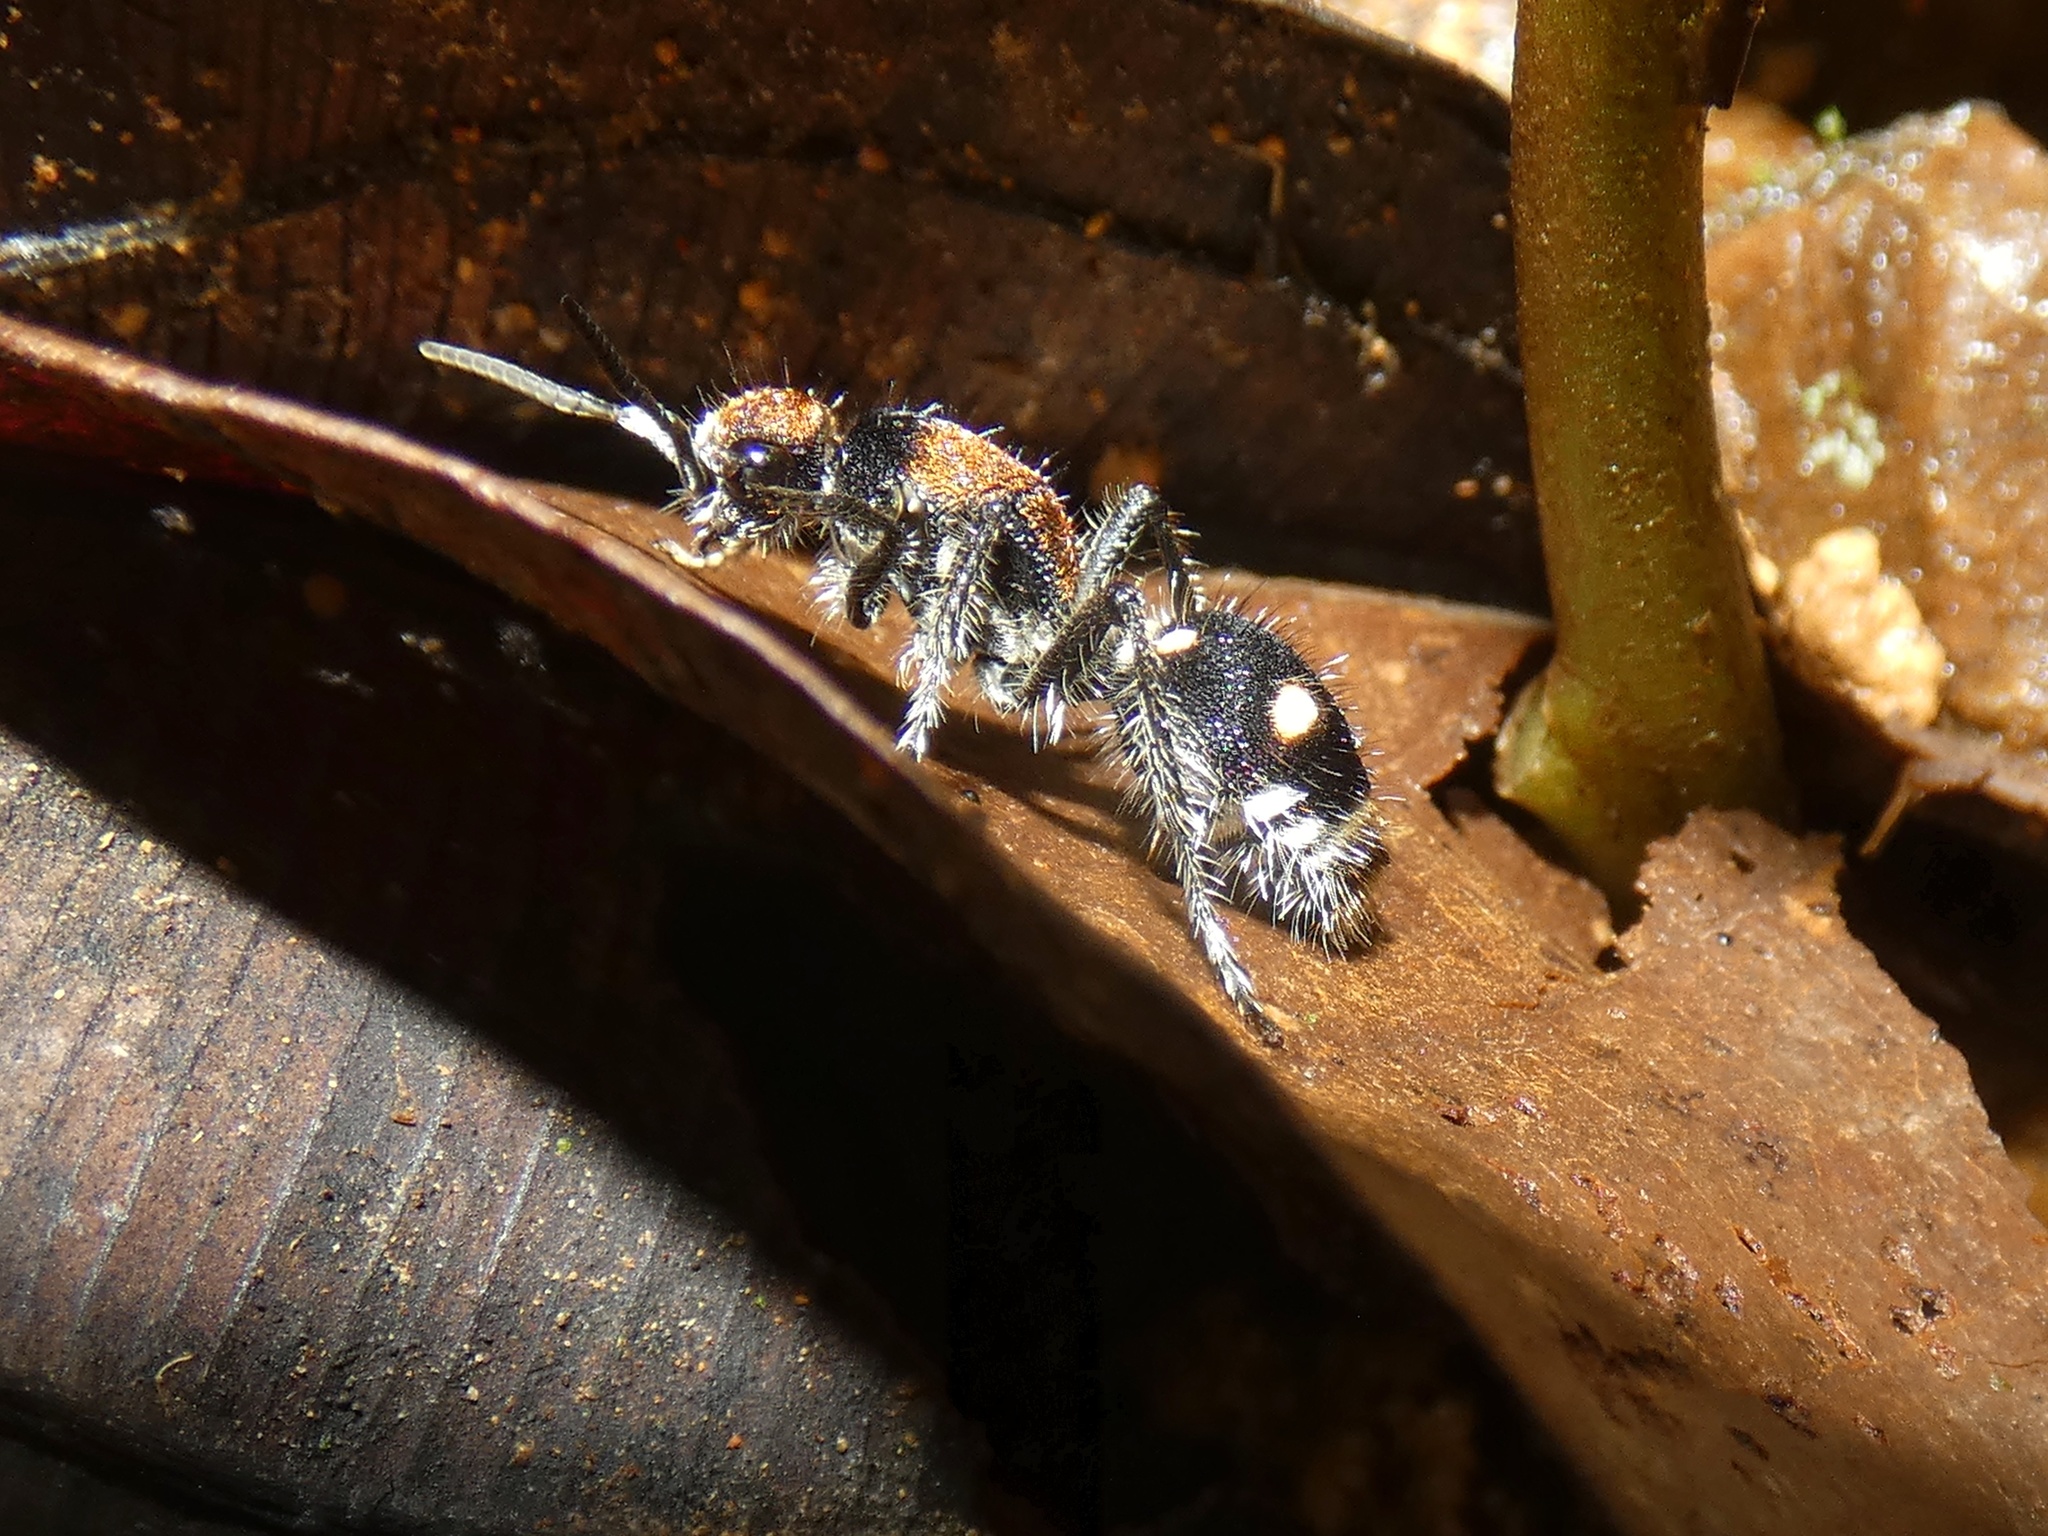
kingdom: Animalia
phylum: Arthropoda
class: Insecta
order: Hymenoptera
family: Mutillidae
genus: Traumatomutilla
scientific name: Traumatomutilla
